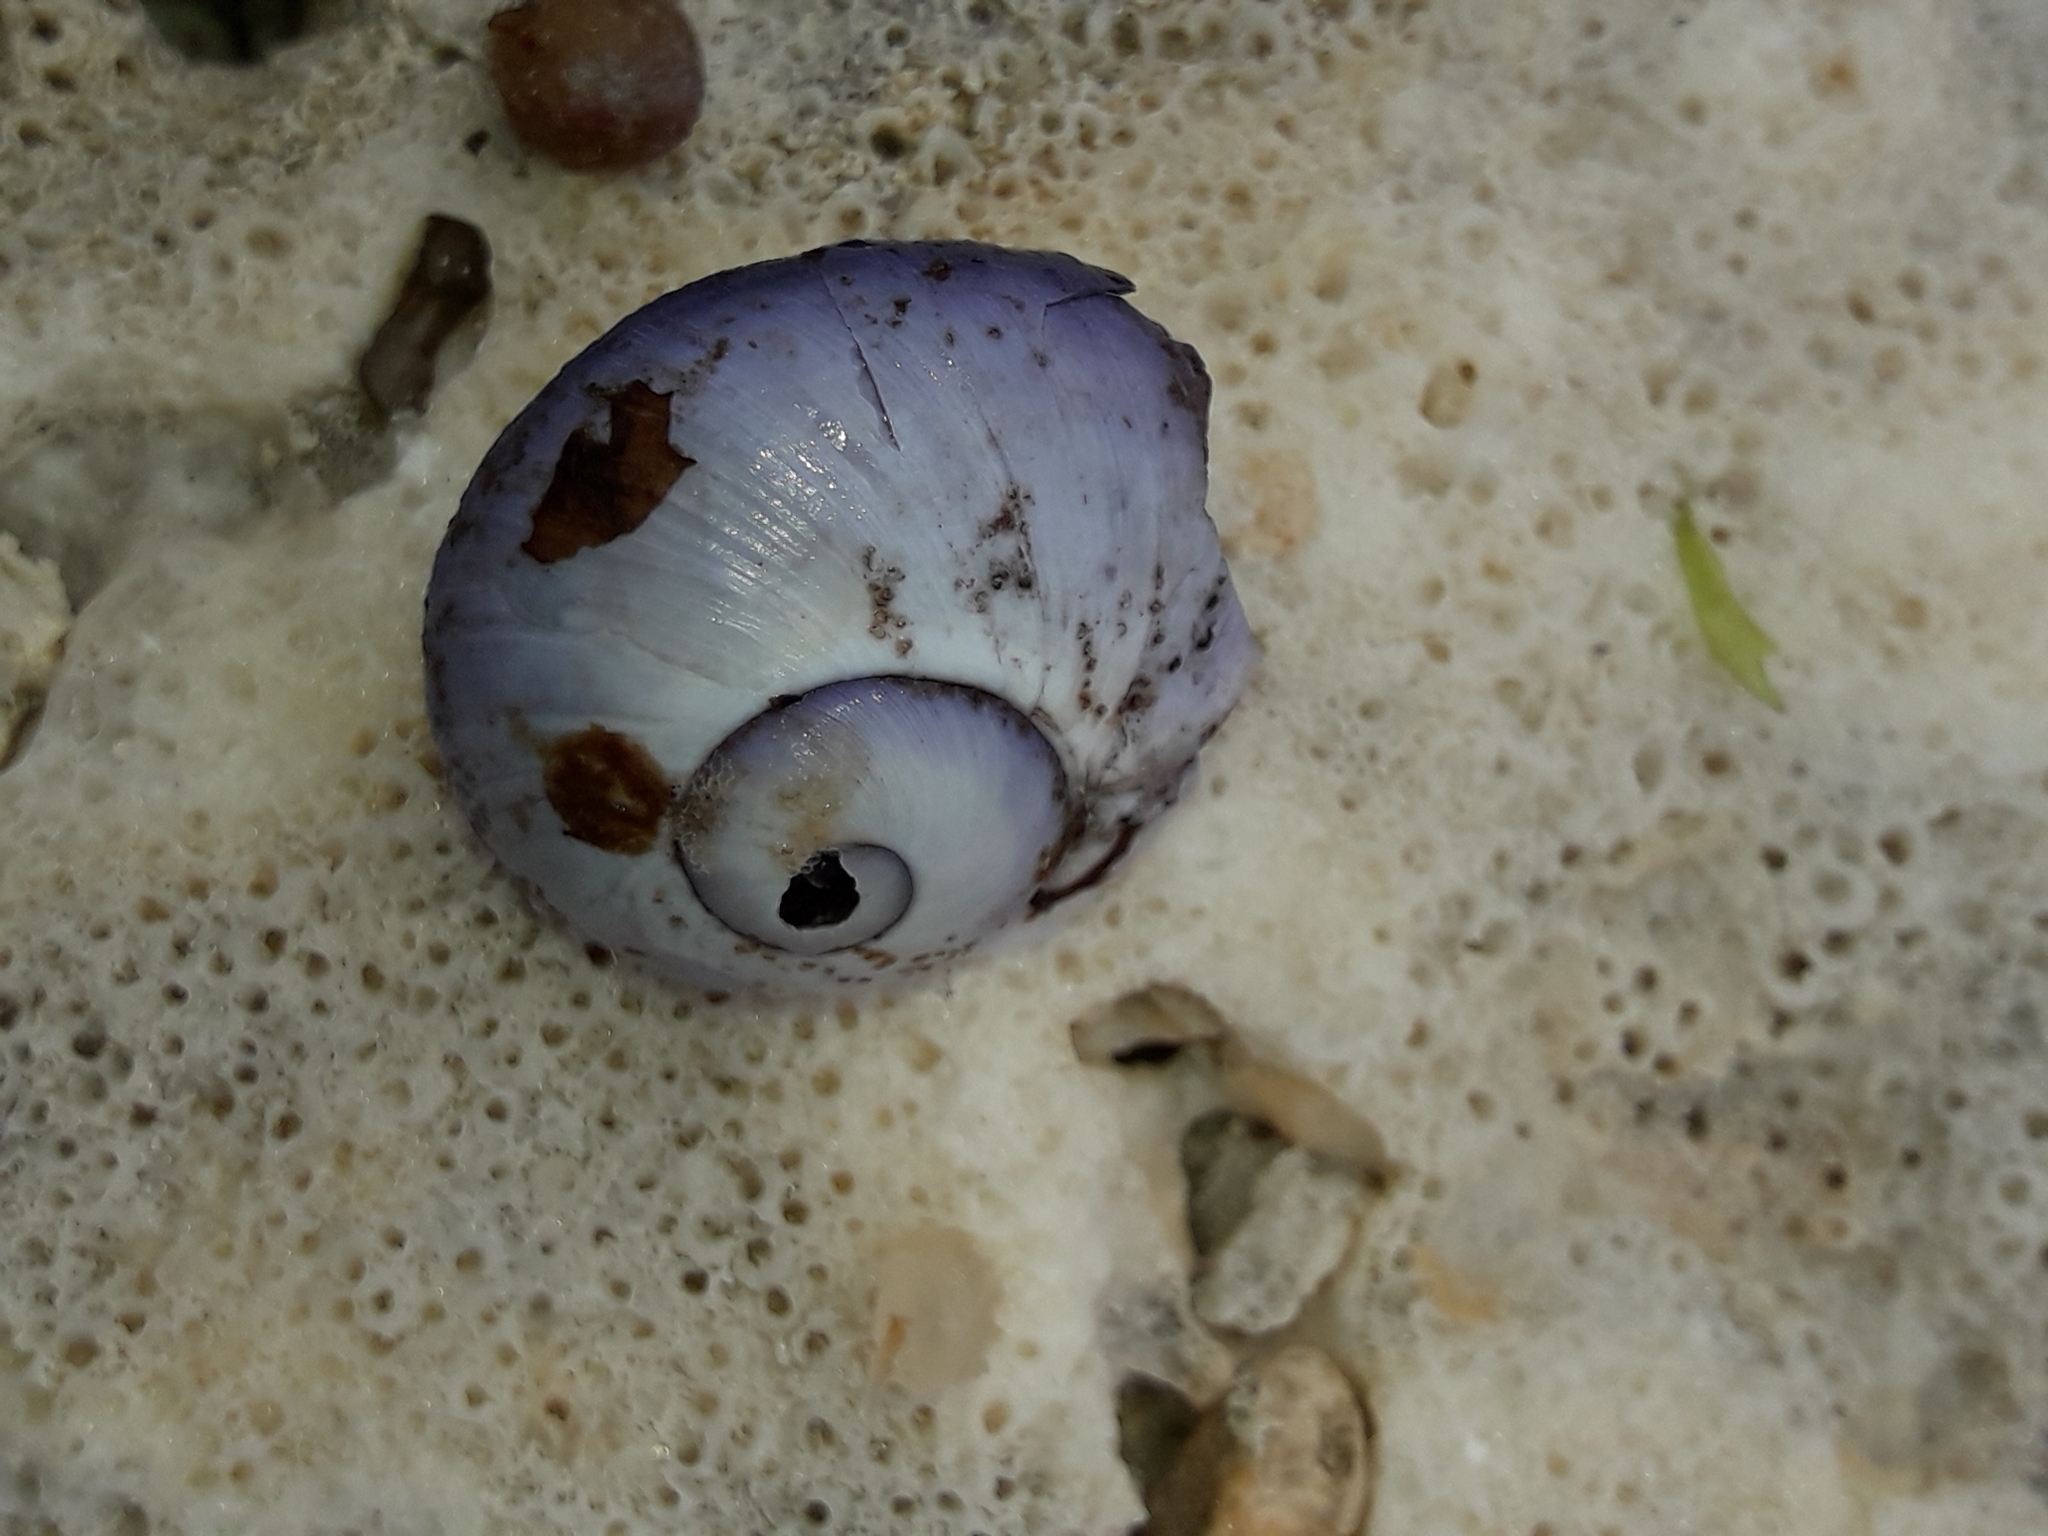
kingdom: Animalia
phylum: Mollusca
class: Gastropoda
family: Epitoniidae
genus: Janthina
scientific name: Janthina janthina
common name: Common janthina
